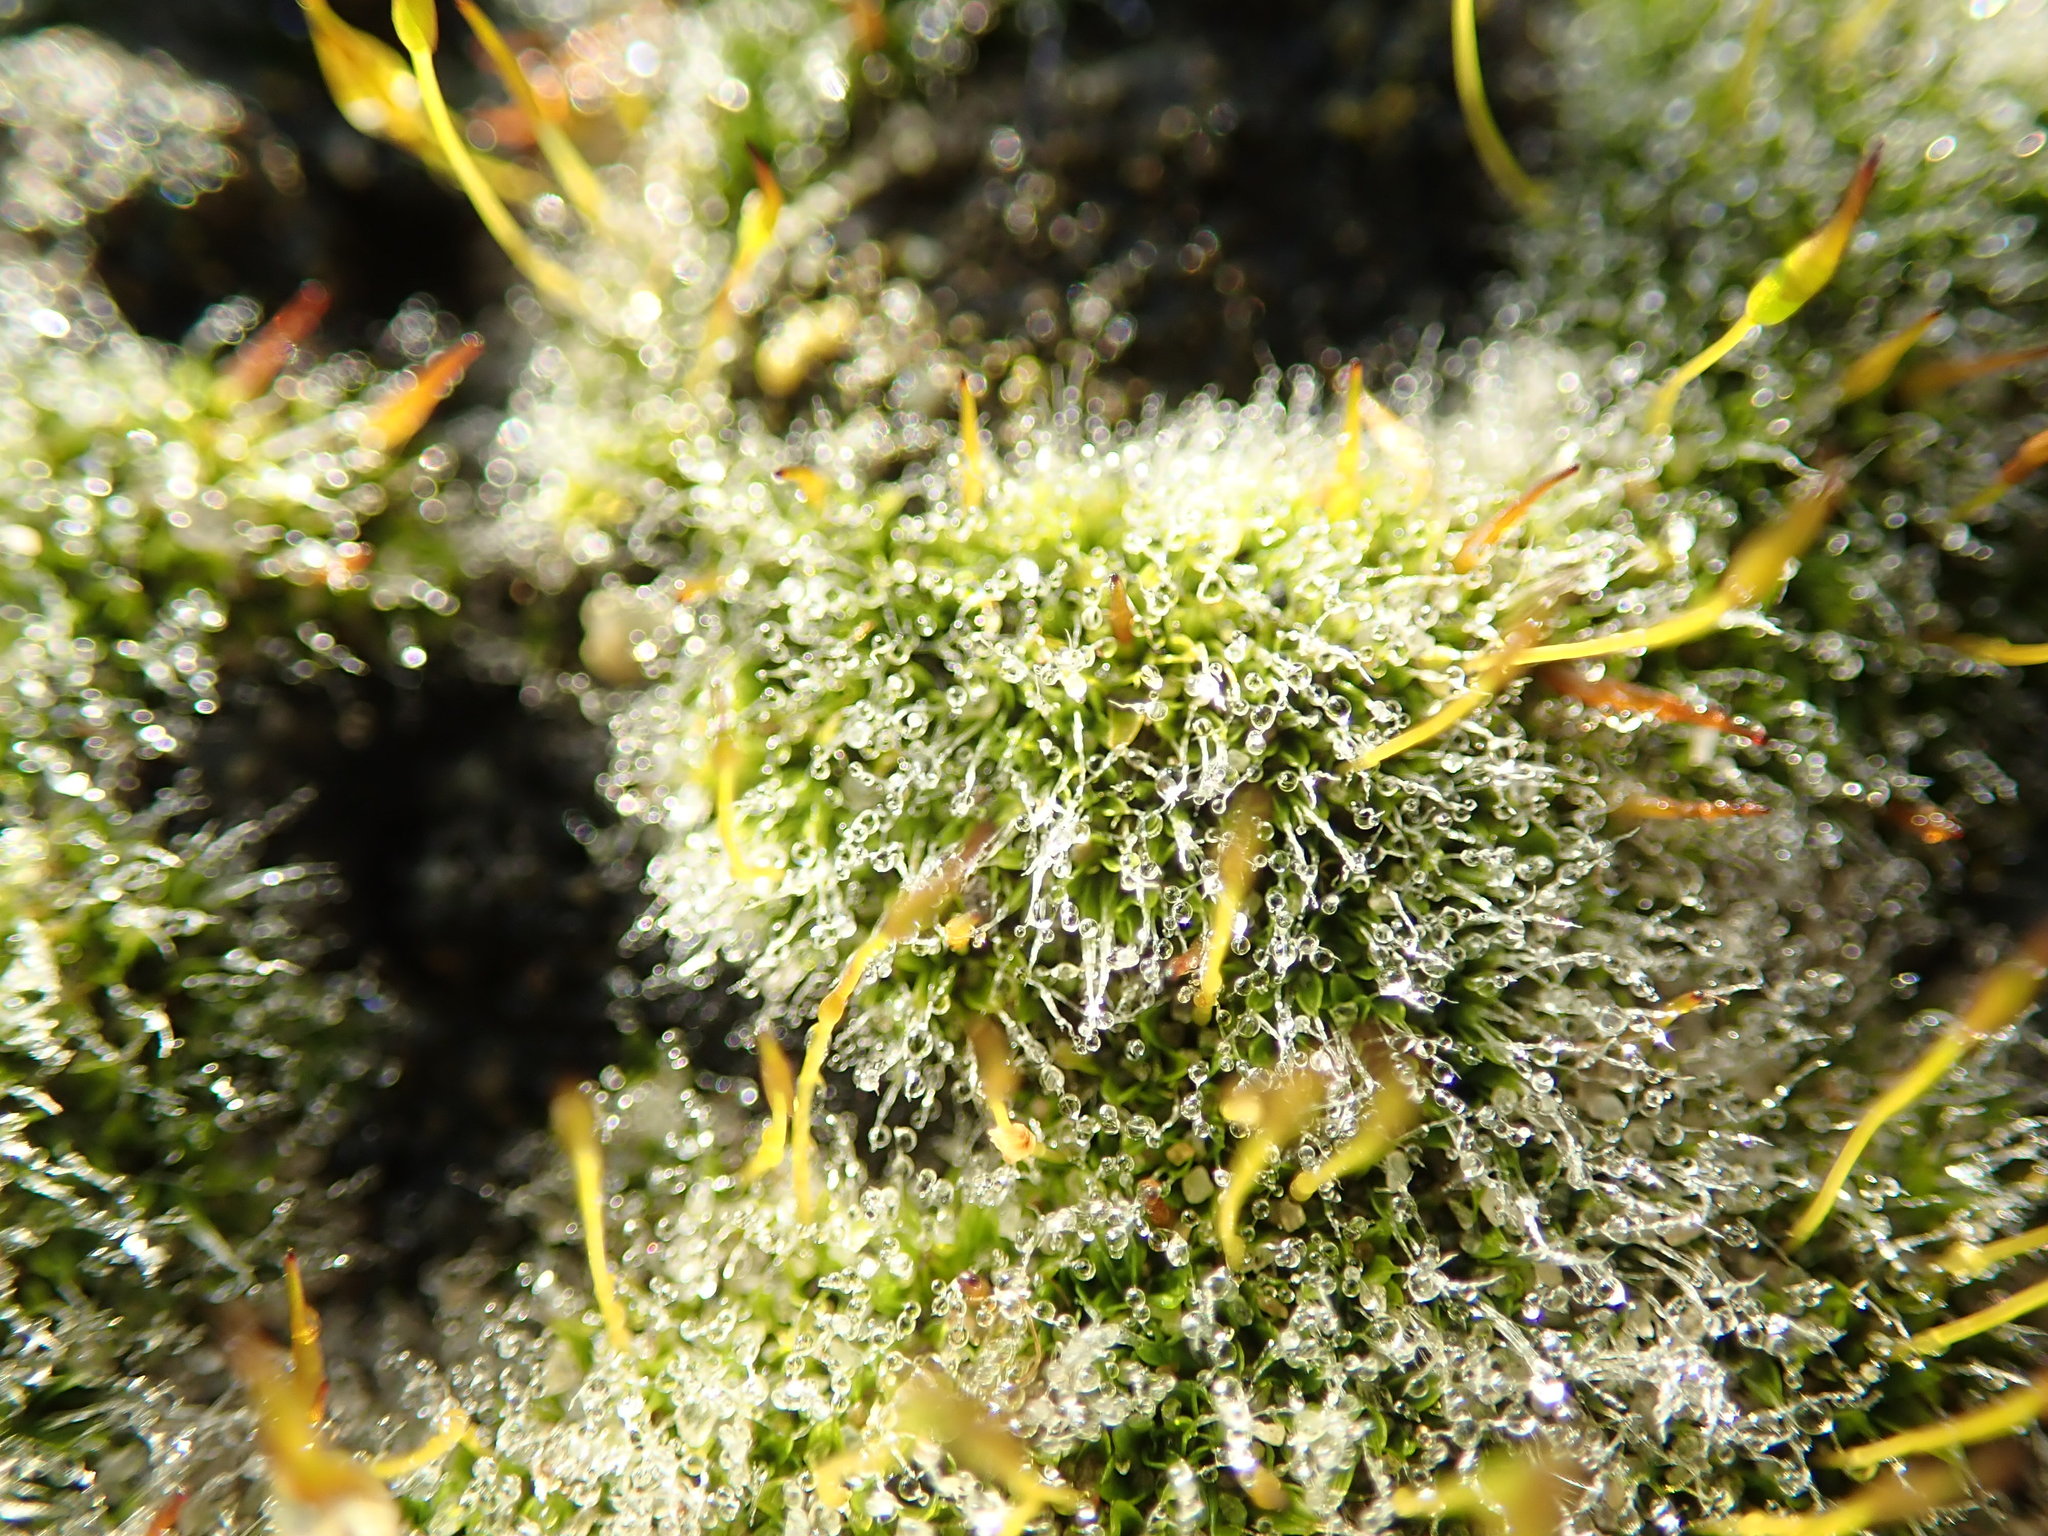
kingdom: Plantae
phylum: Bryophyta
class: Bryopsida
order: Pottiales
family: Pottiaceae
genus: Tortula
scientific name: Tortula muralis
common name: Wall screw-moss
